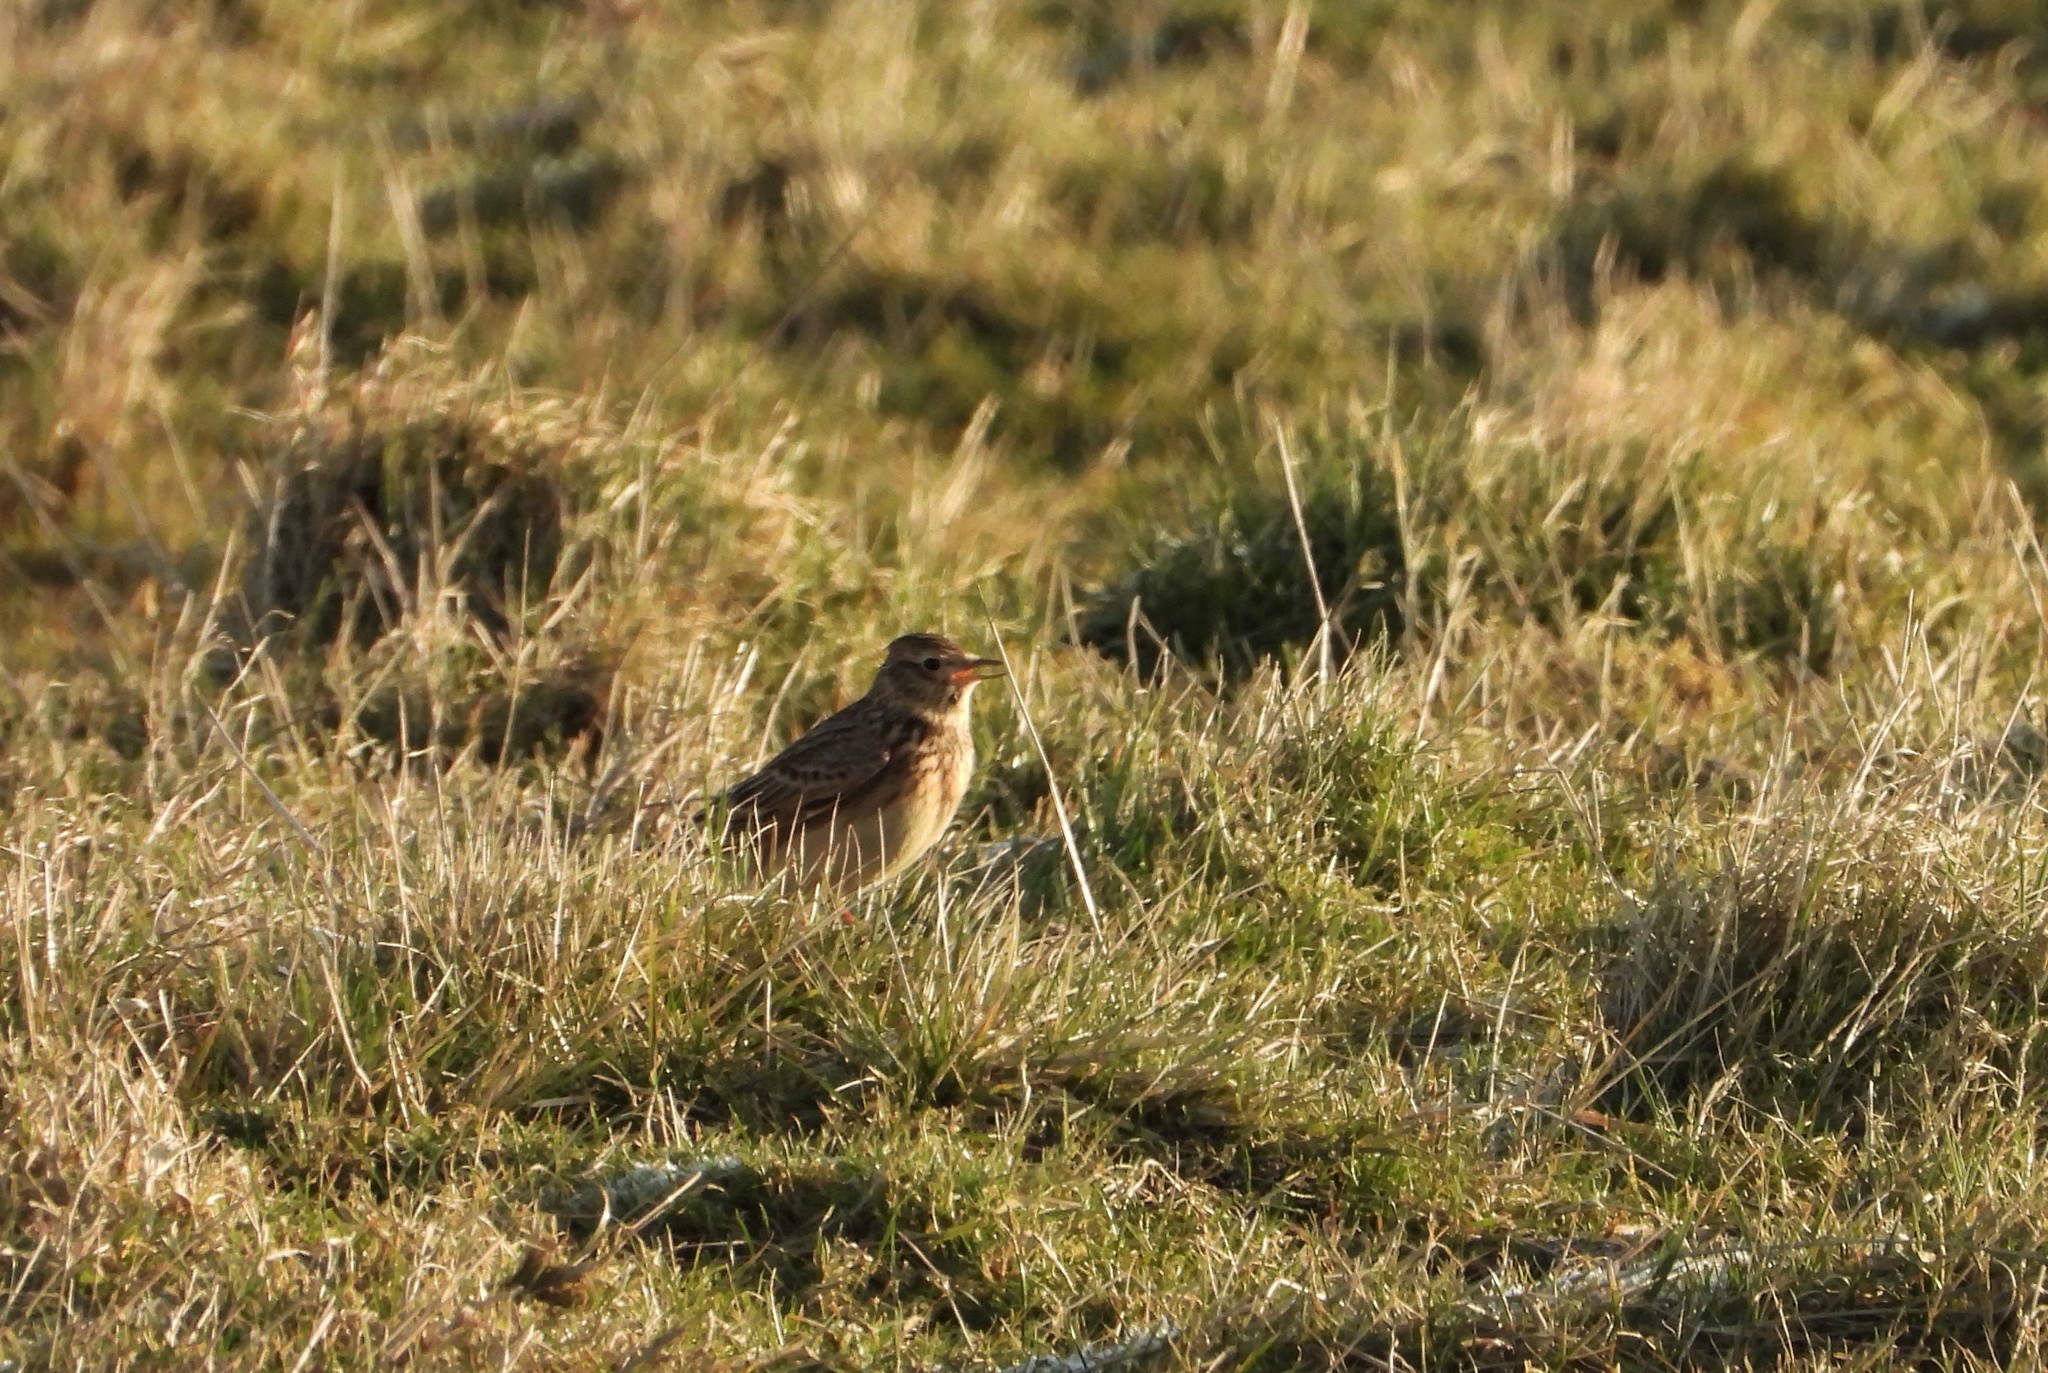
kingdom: Animalia
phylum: Chordata
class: Aves
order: Passeriformes
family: Alaudidae
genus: Alauda
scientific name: Alauda arvensis
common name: Eurasian skylark
